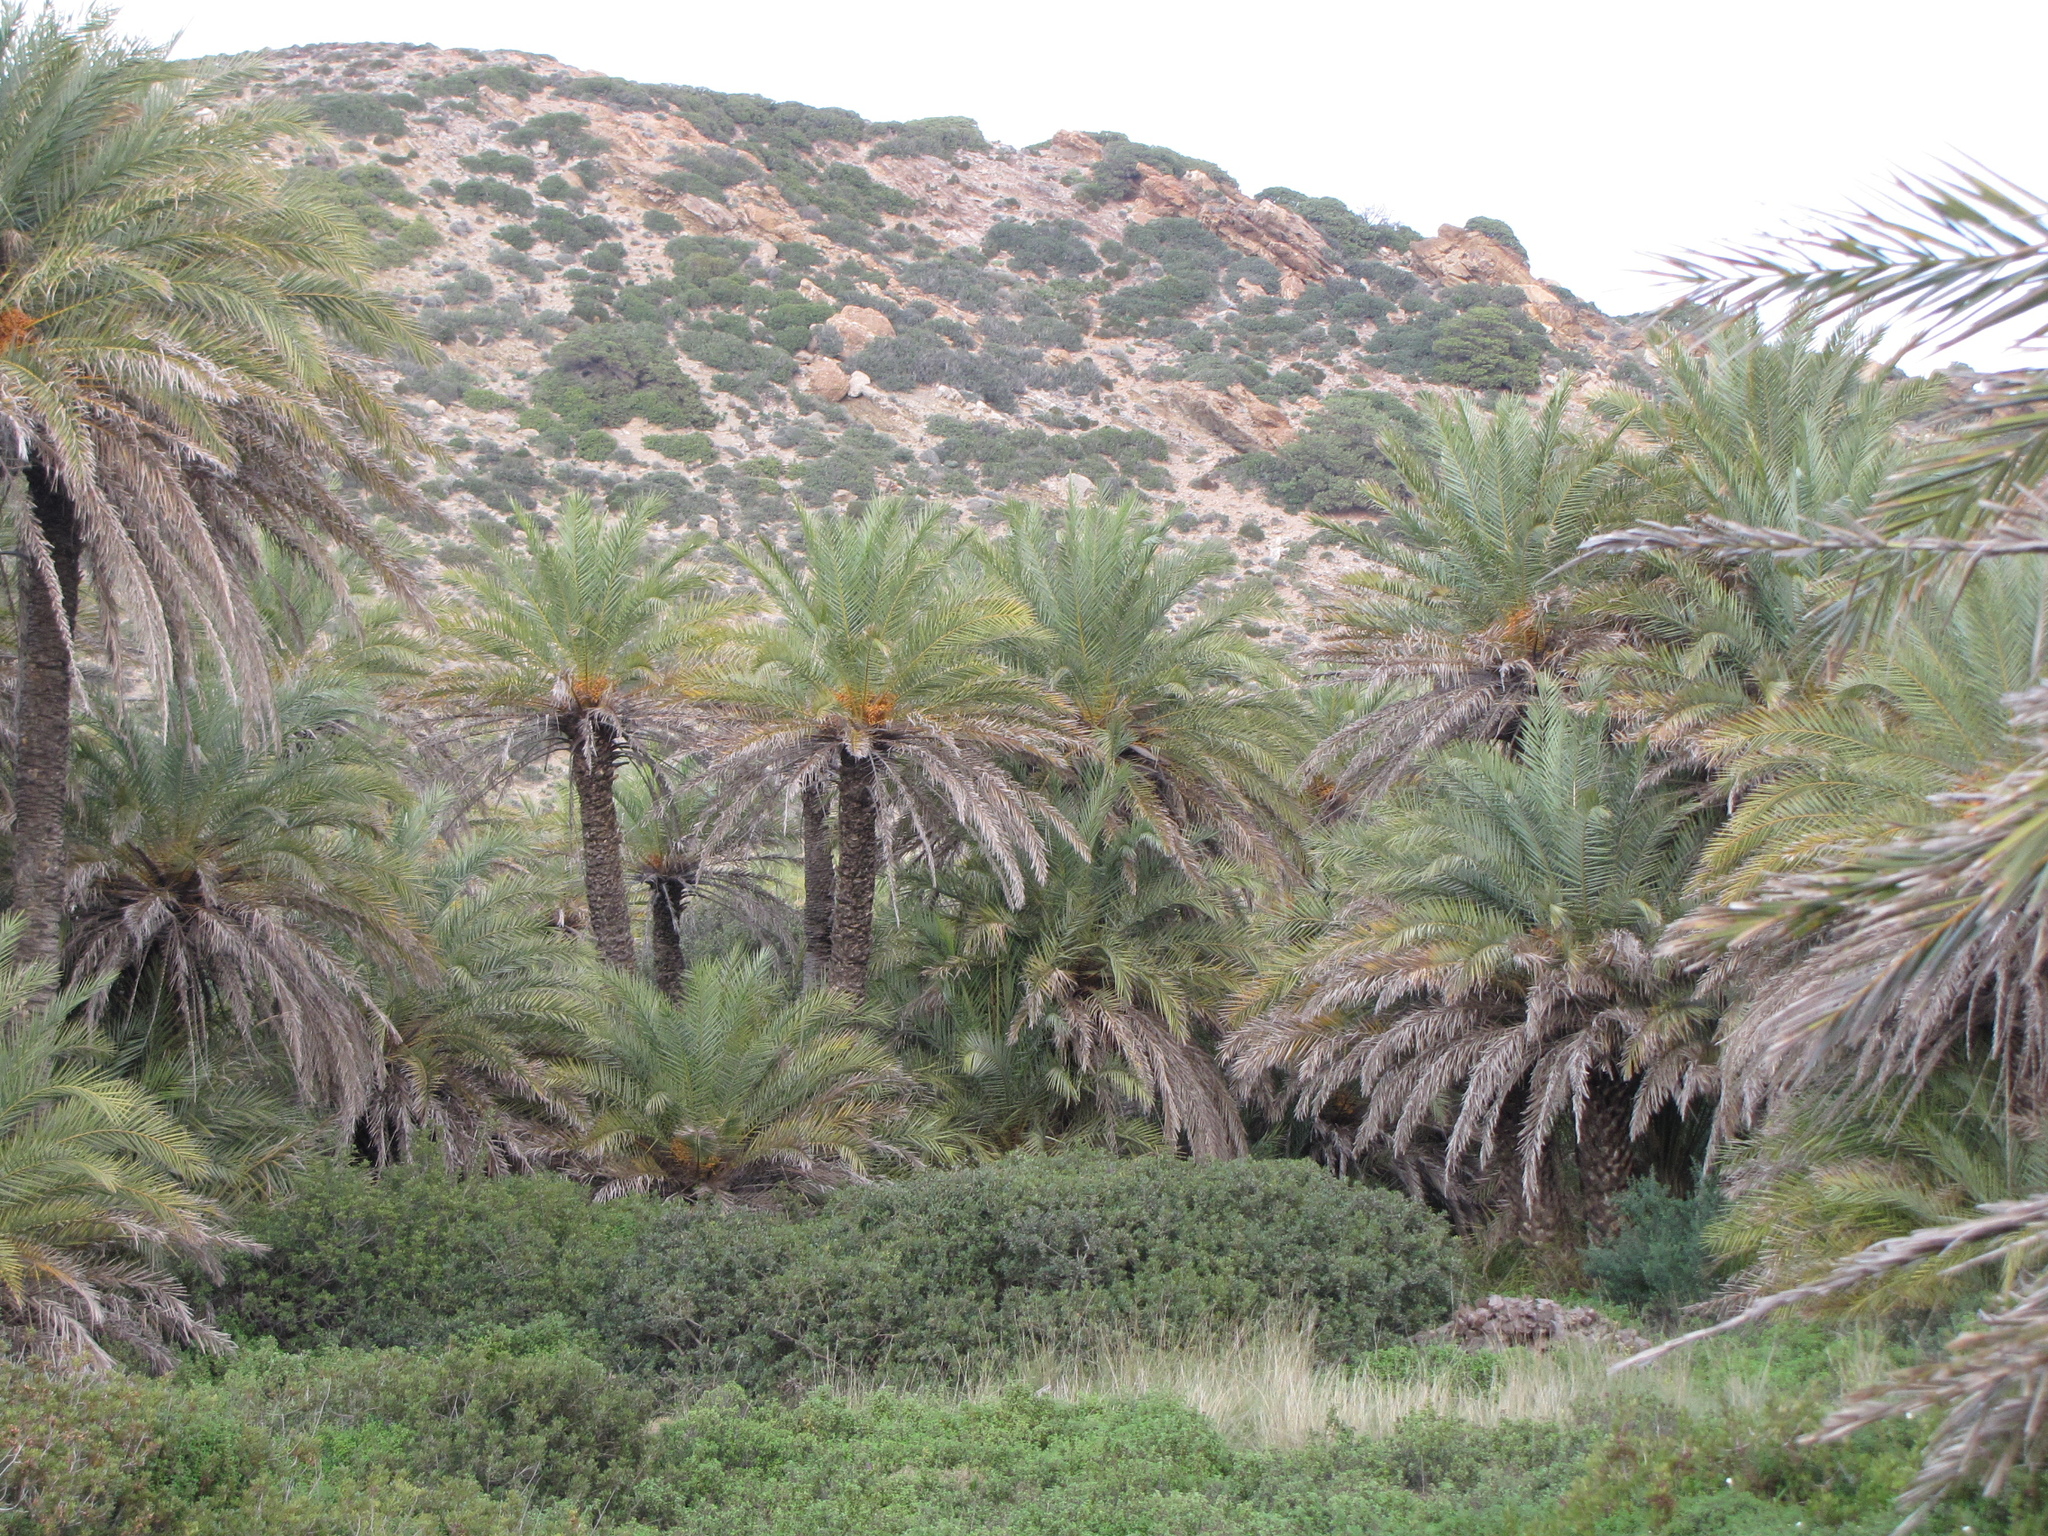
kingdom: Plantae
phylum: Tracheophyta
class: Liliopsida
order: Arecales
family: Arecaceae
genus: Phoenix
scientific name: Phoenix theophrasti
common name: Cretan date palm
